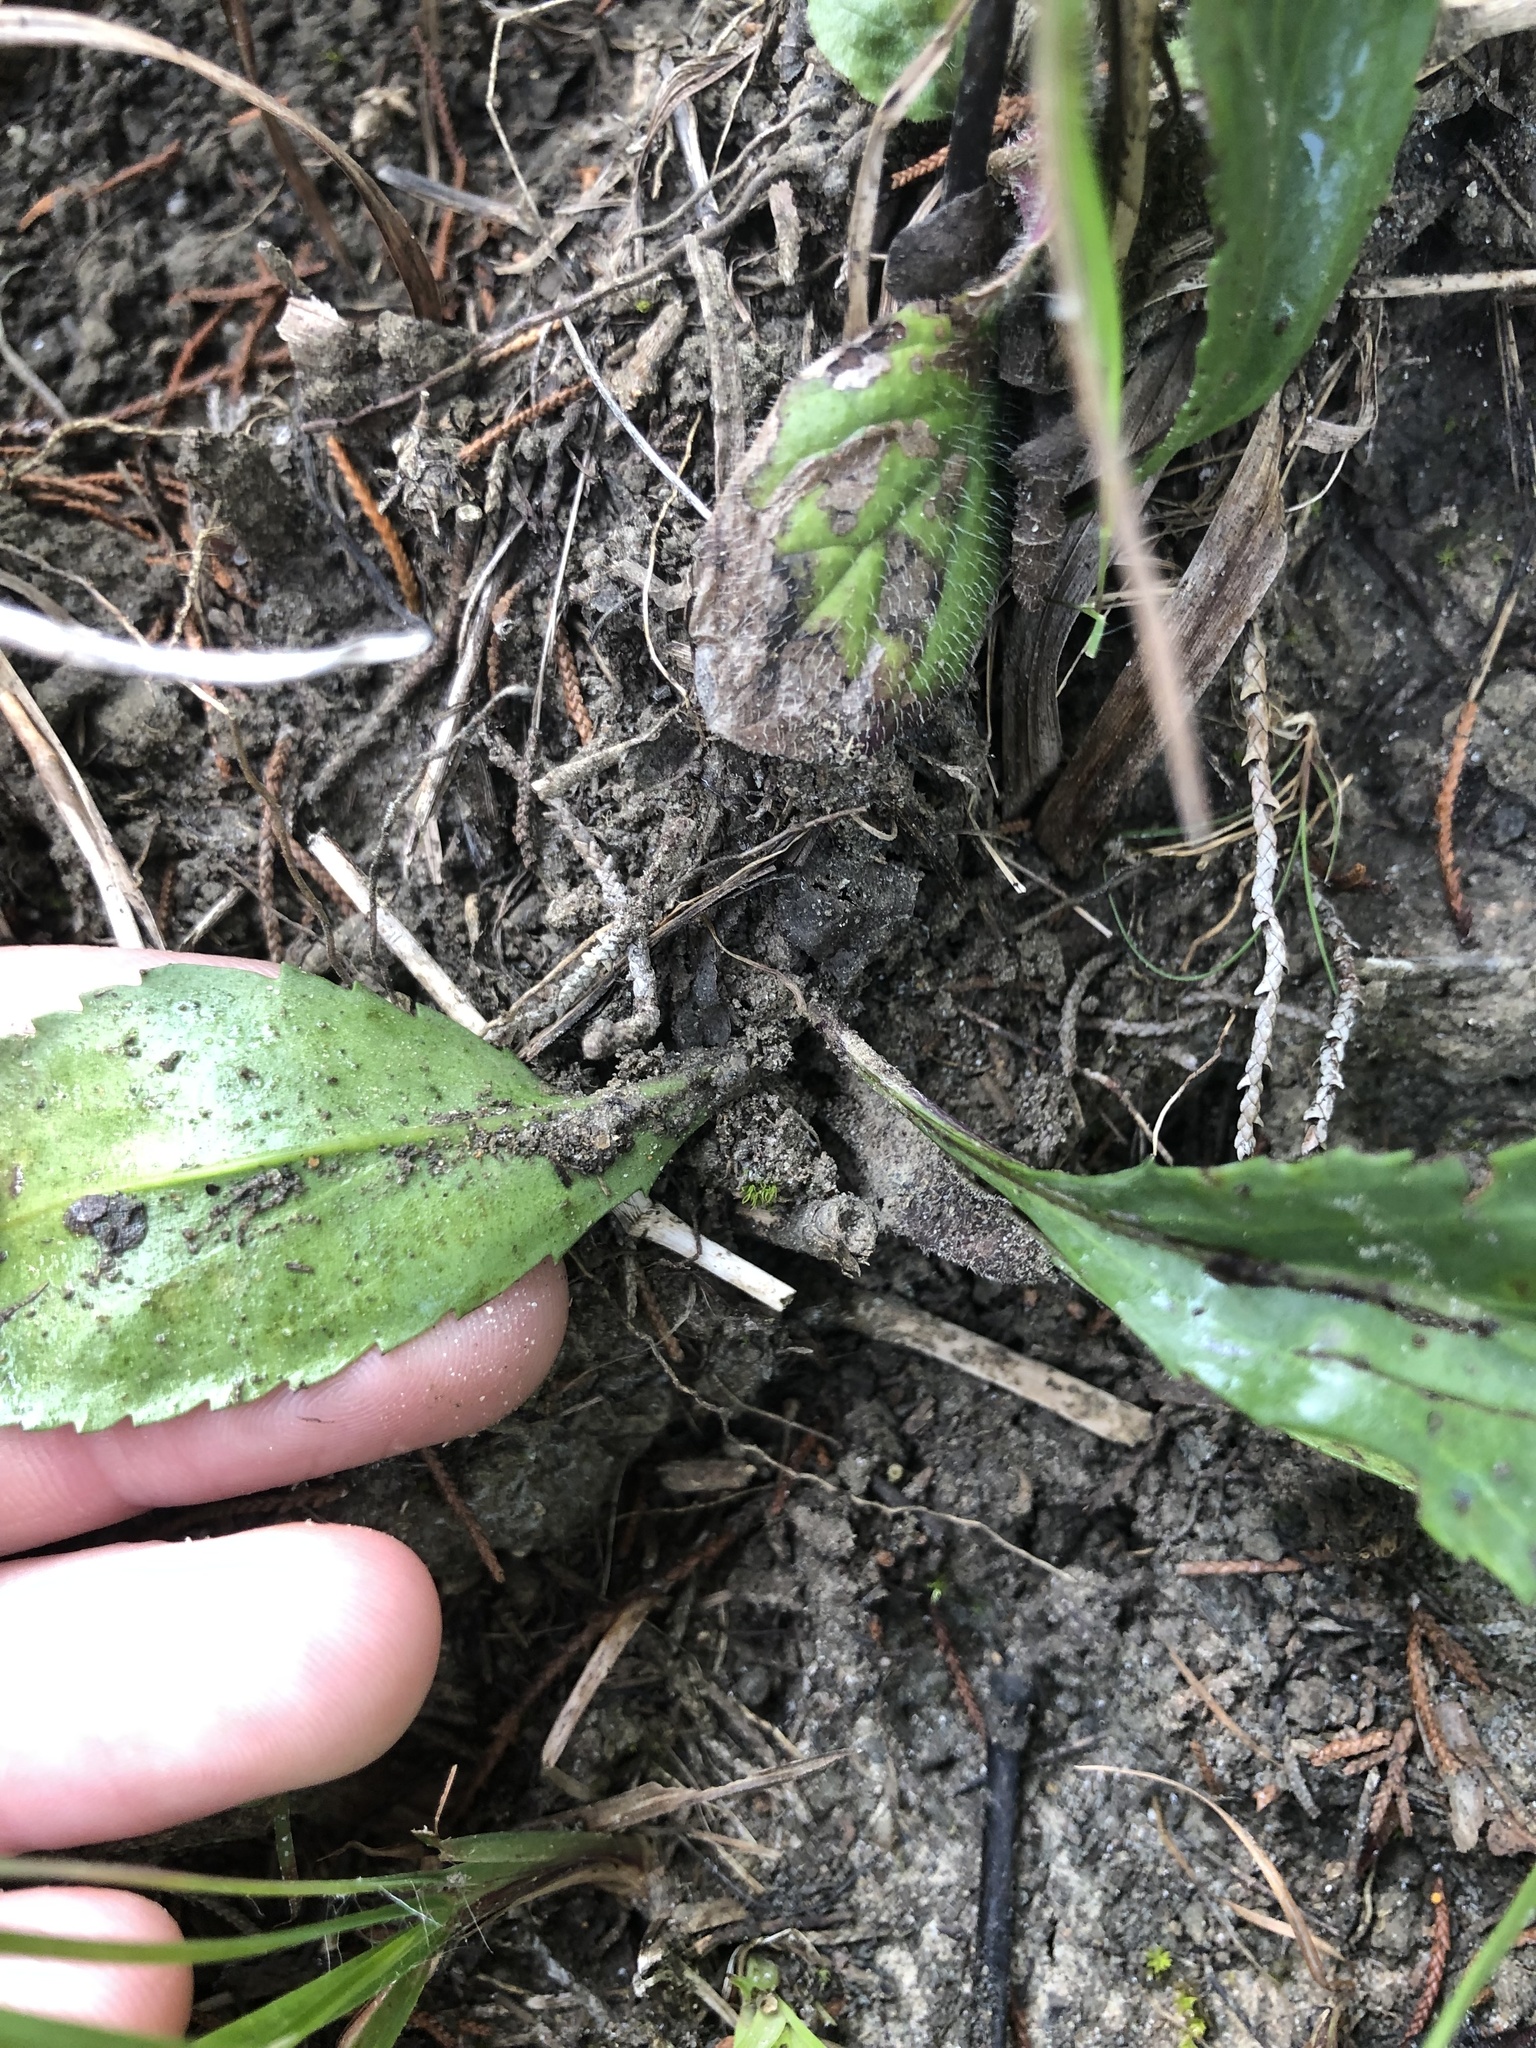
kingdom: Plantae
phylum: Tracheophyta
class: Magnoliopsida
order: Asterales
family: Asteraceae
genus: Packera
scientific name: Packera paupercula
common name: Balsam groundsel
